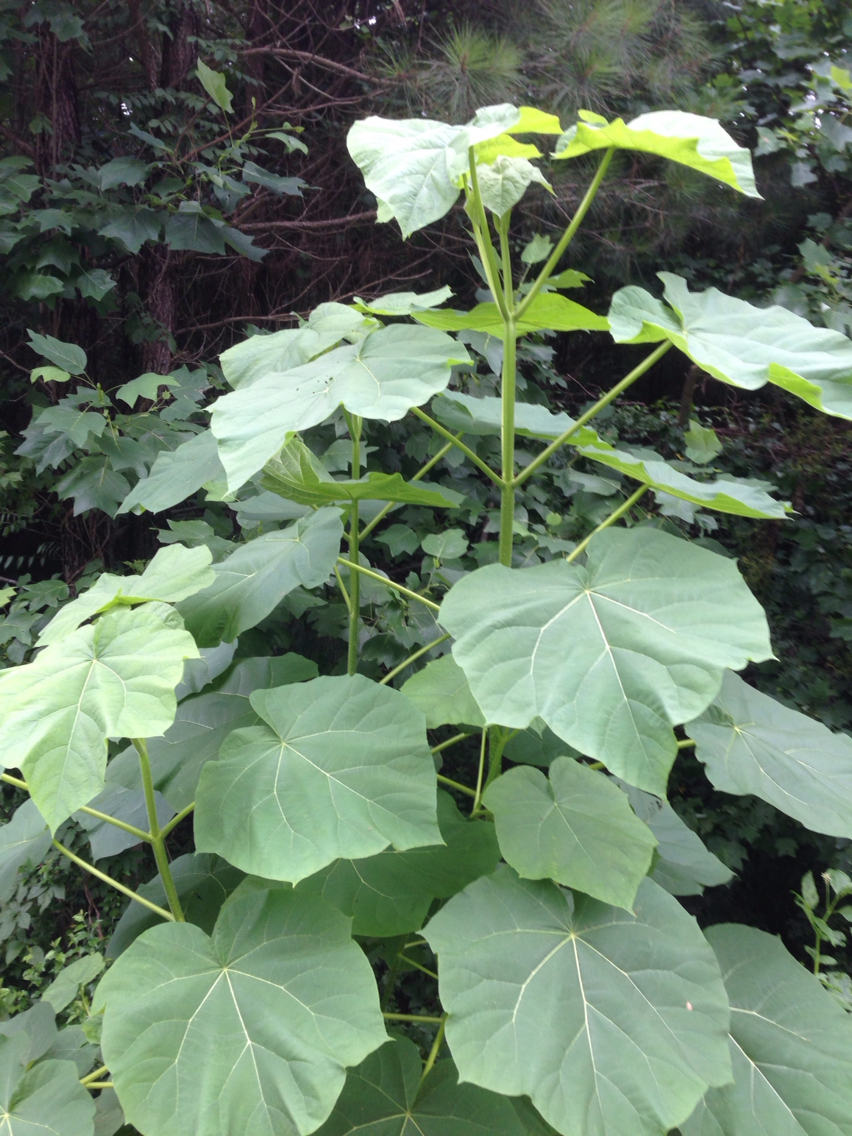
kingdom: Plantae
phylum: Tracheophyta
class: Magnoliopsida
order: Lamiales
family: Paulowniaceae
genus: Paulownia
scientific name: Paulownia tomentosa
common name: Foxglove-tree
